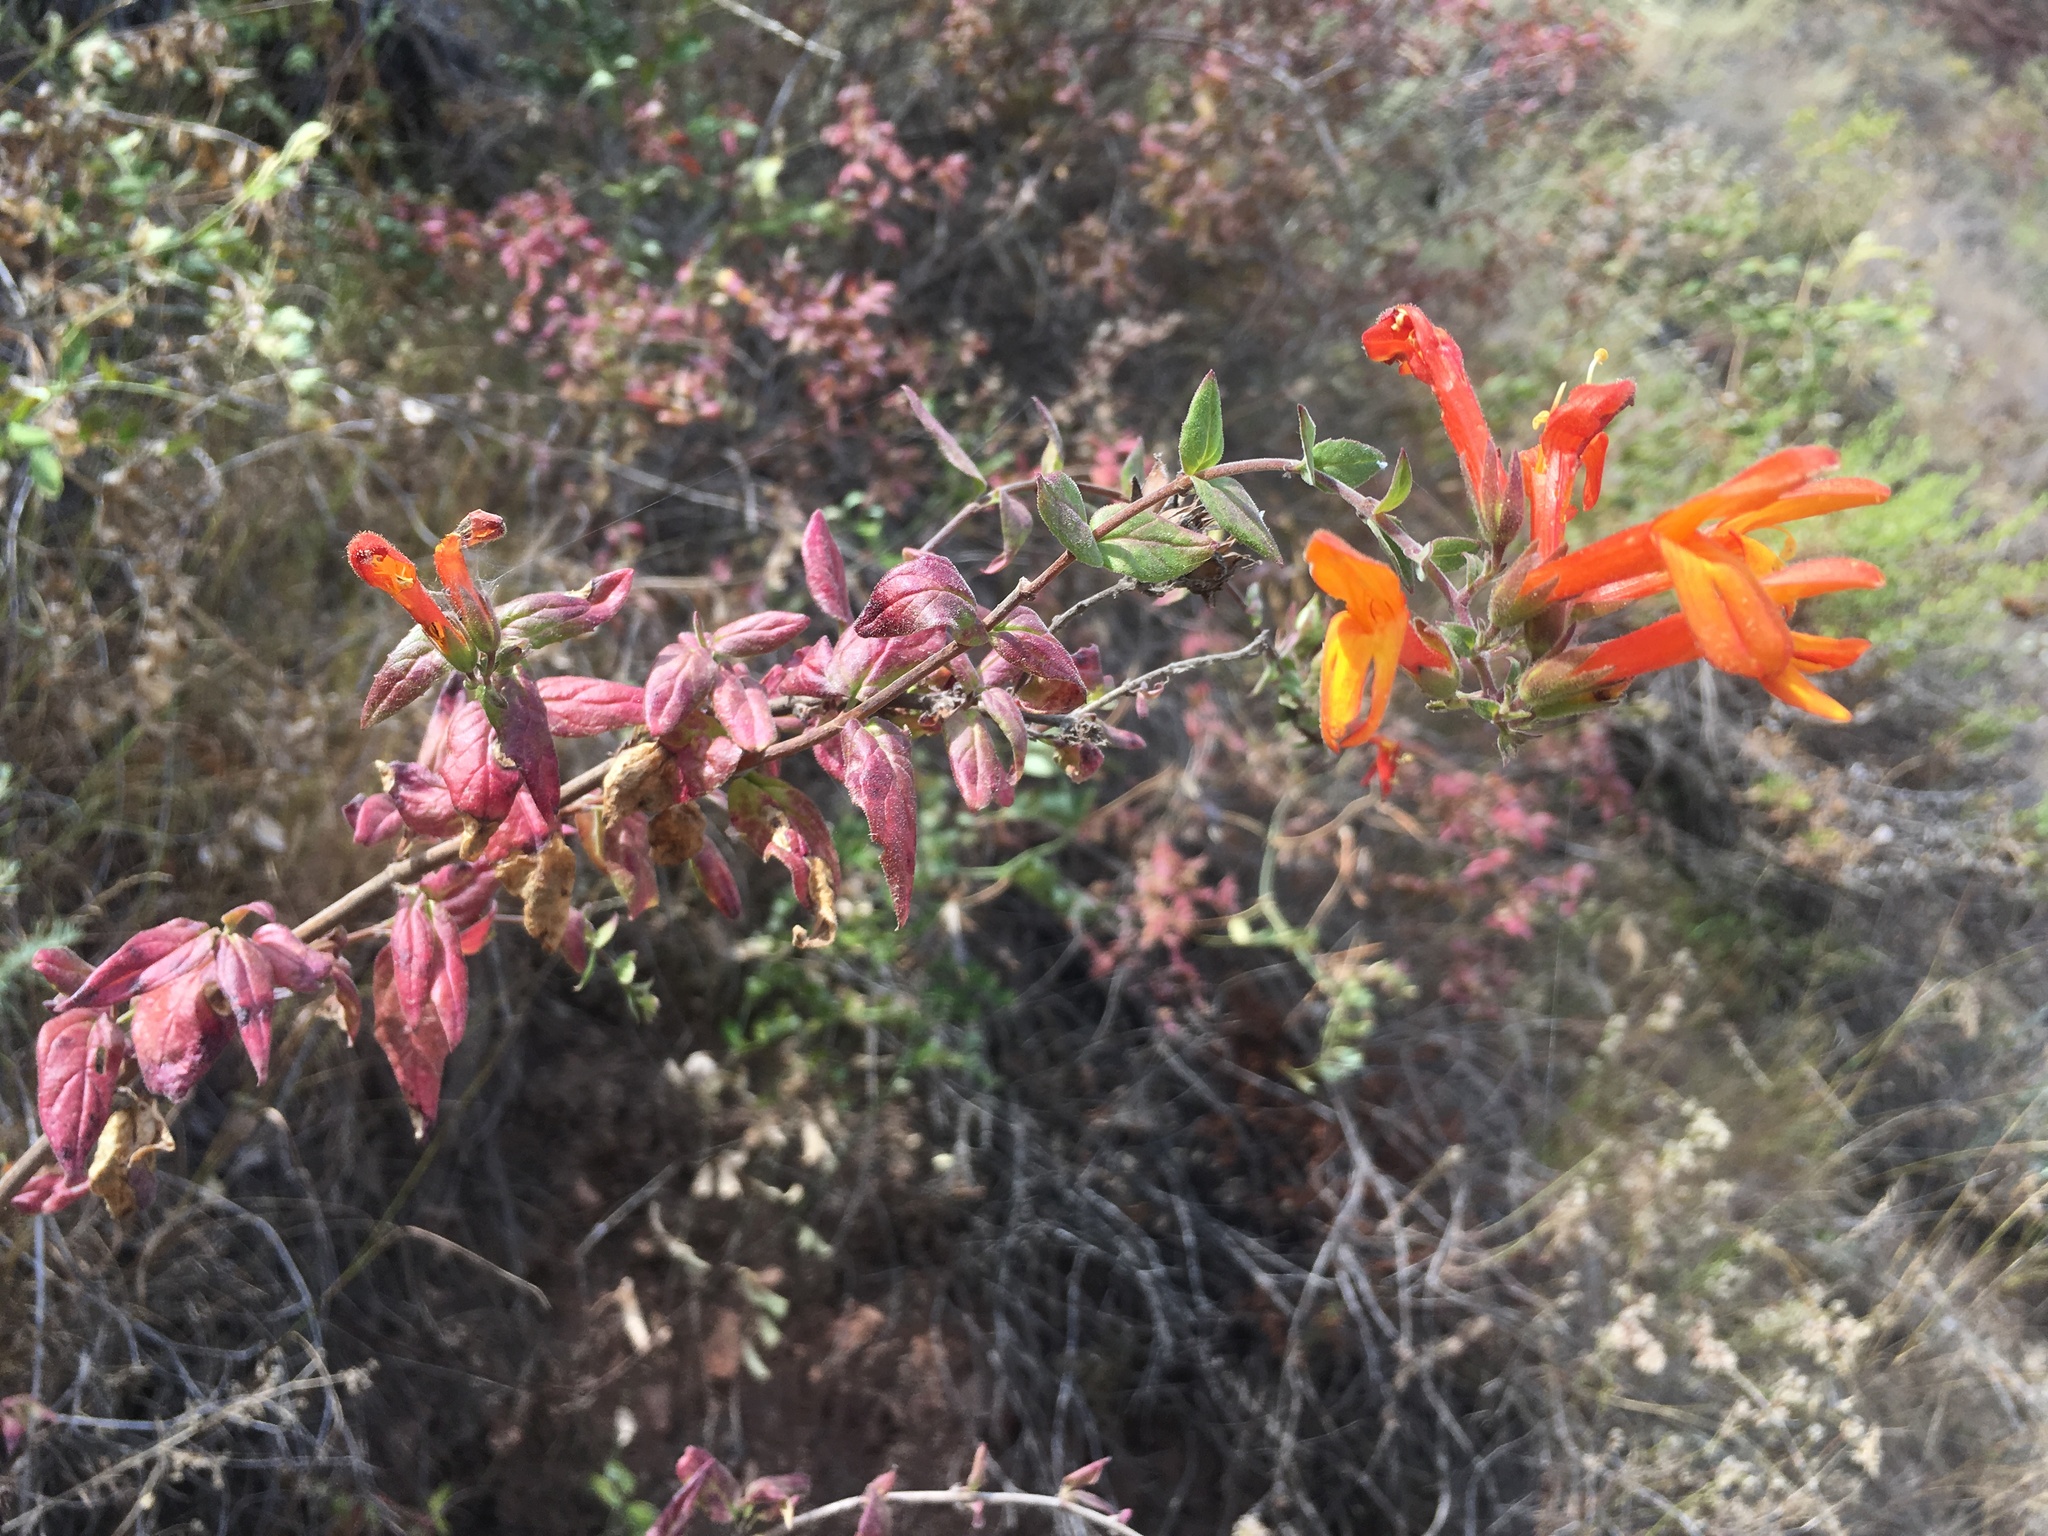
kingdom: Plantae
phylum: Tracheophyta
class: Magnoliopsida
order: Lamiales
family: Plantaginaceae
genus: Keckiella
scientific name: Keckiella cordifolia
